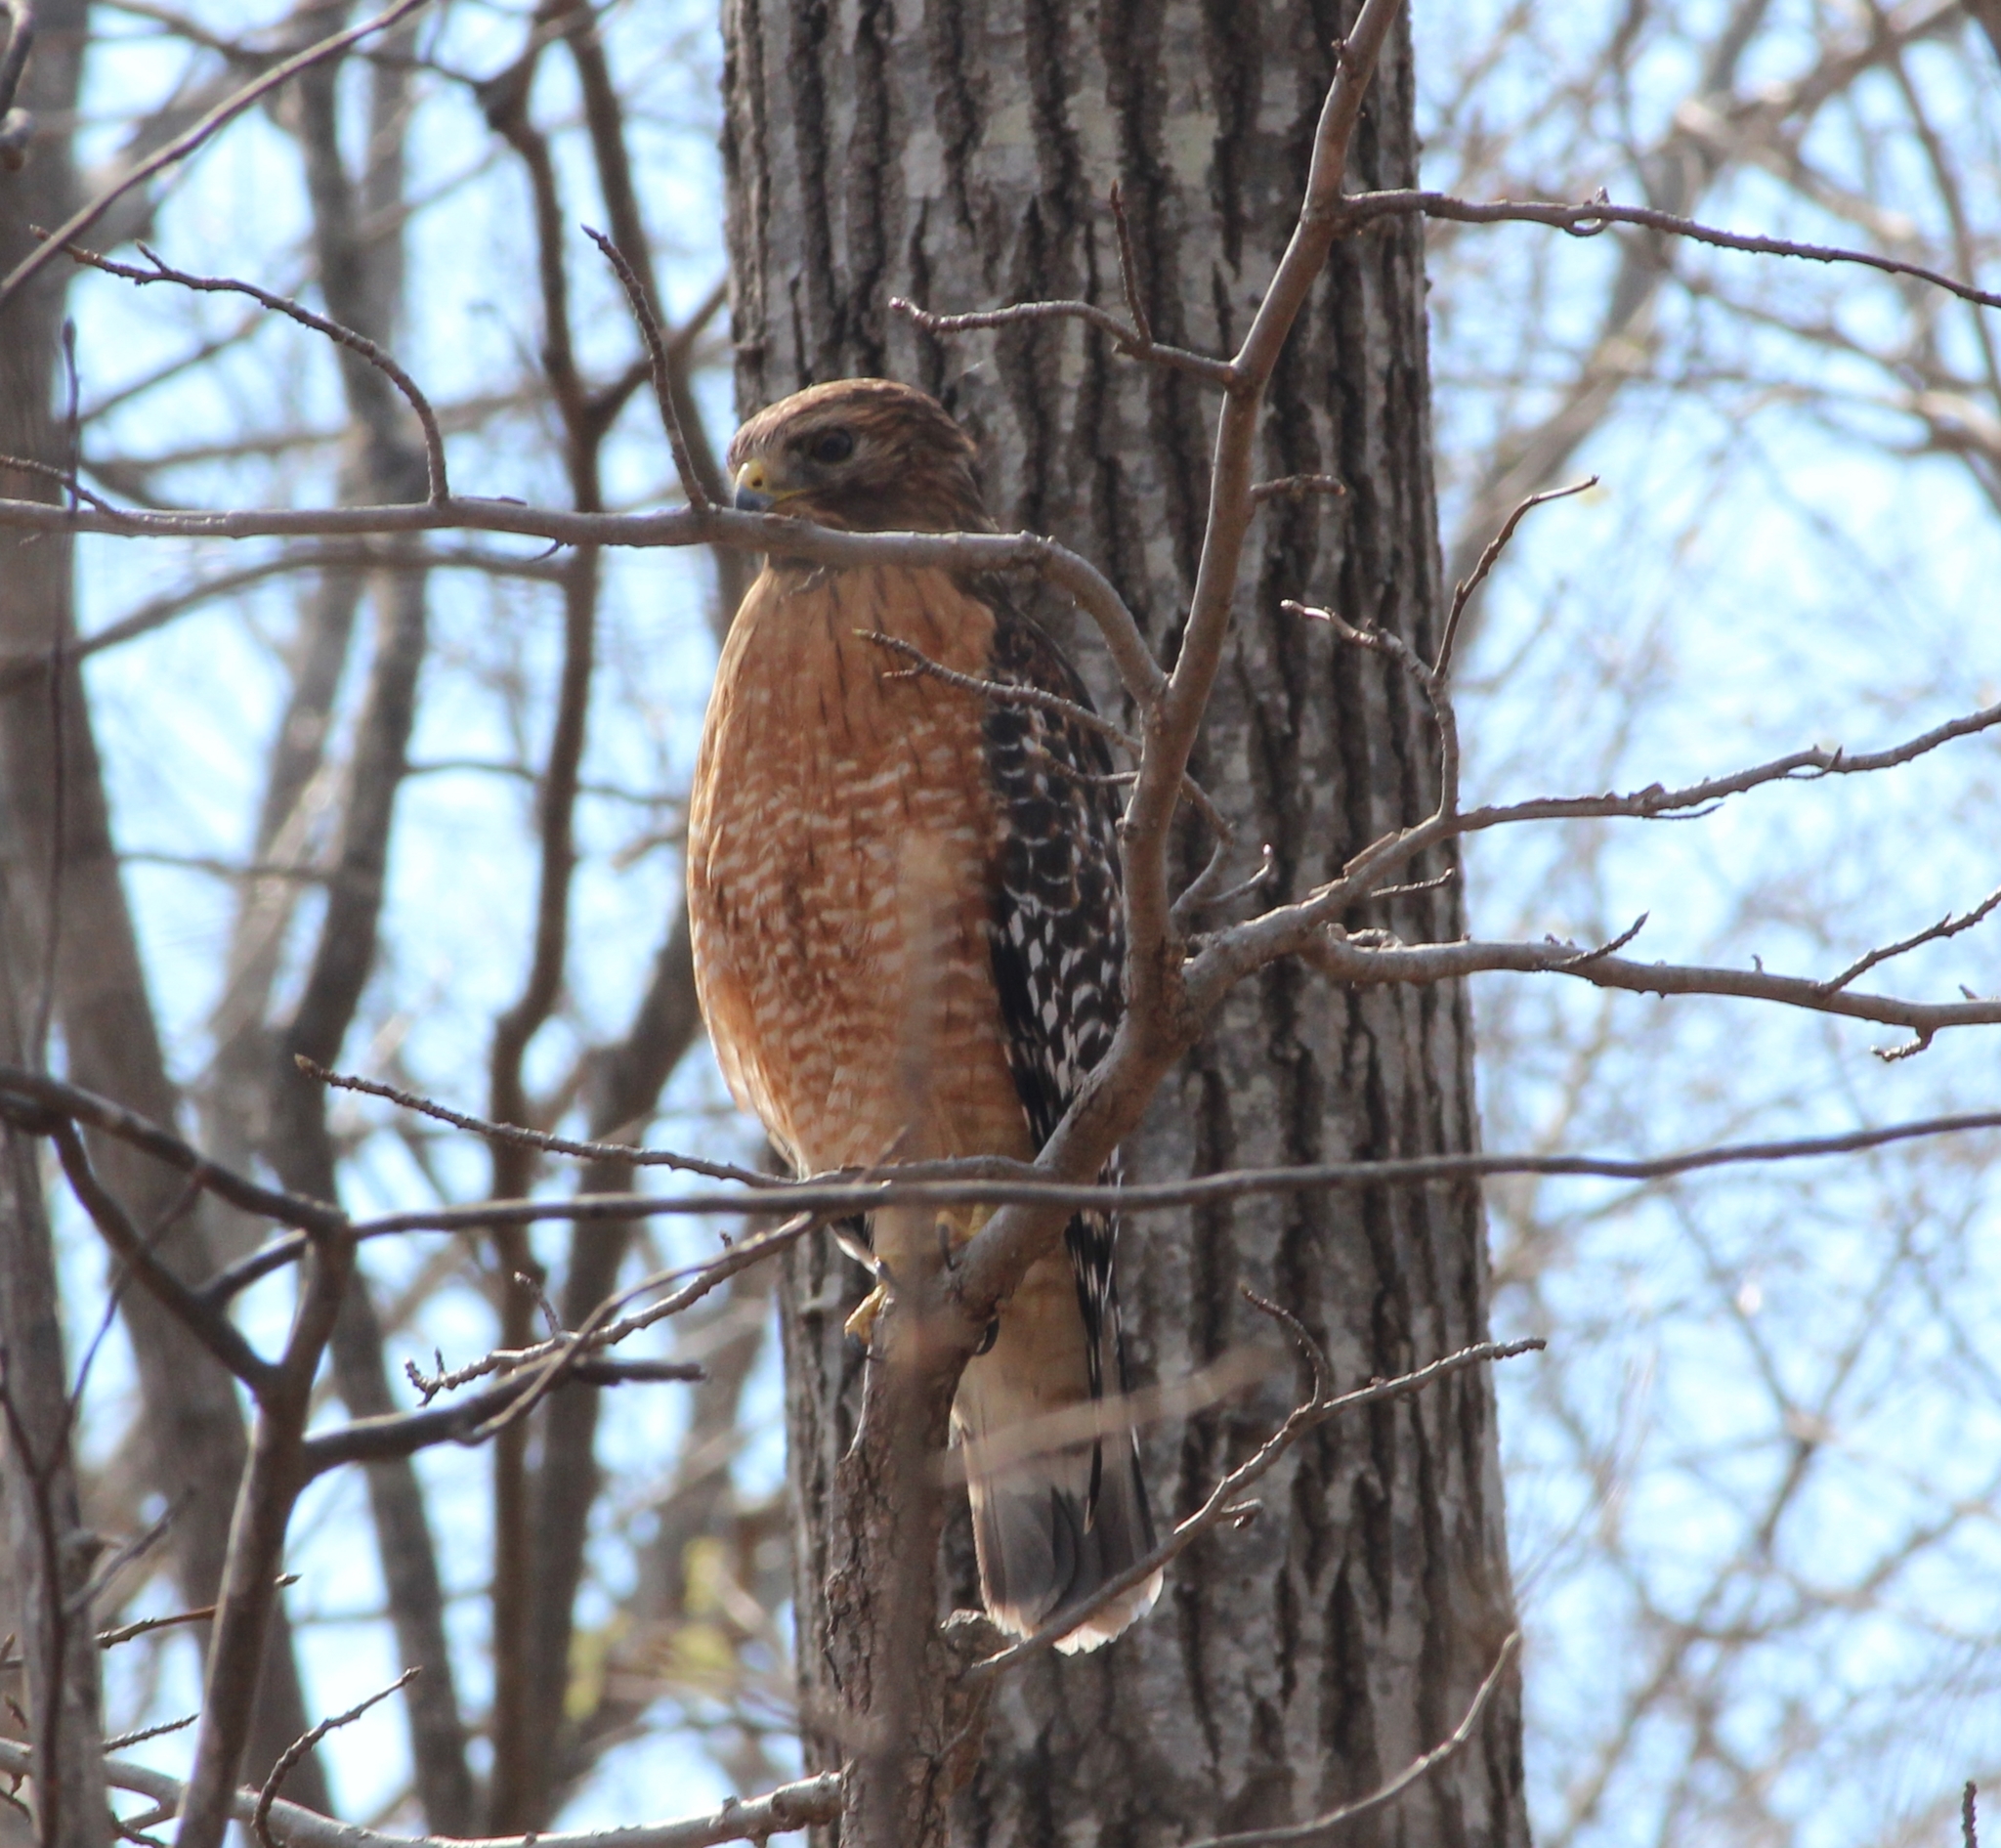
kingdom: Animalia
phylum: Chordata
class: Aves
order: Accipitriformes
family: Accipitridae
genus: Buteo
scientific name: Buteo lineatus
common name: Red-shouldered hawk
